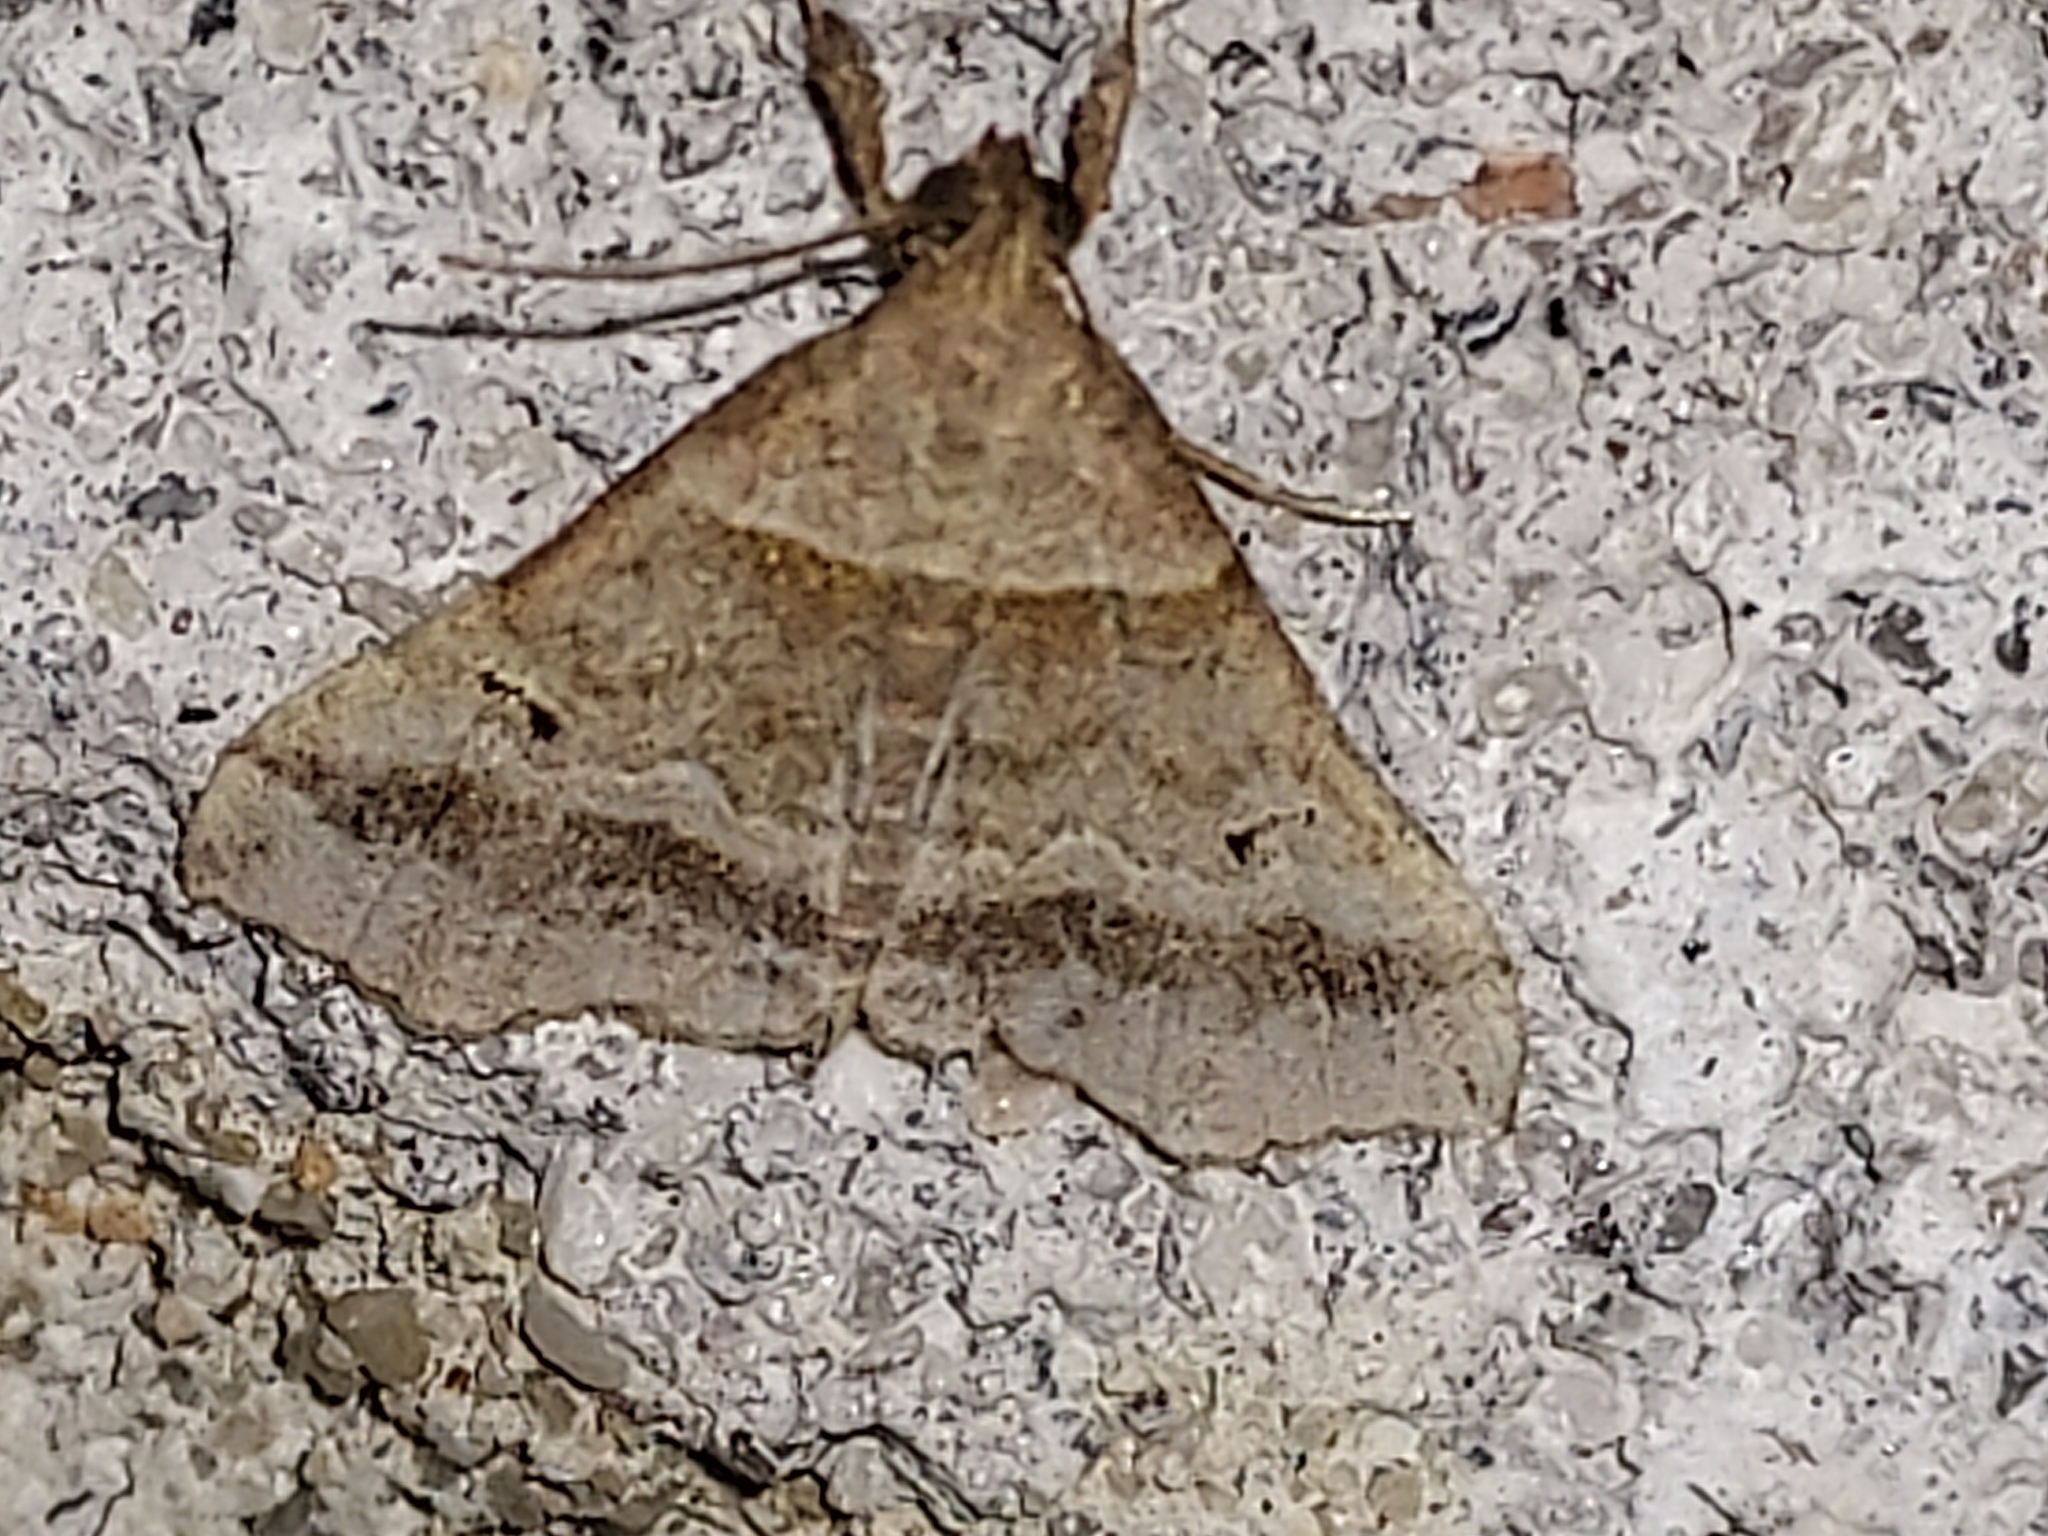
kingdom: Animalia
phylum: Arthropoda
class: Insecta
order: Lepidoptera
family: Erebidae
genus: Phaeolita
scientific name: Phaeolita pyramusalis
